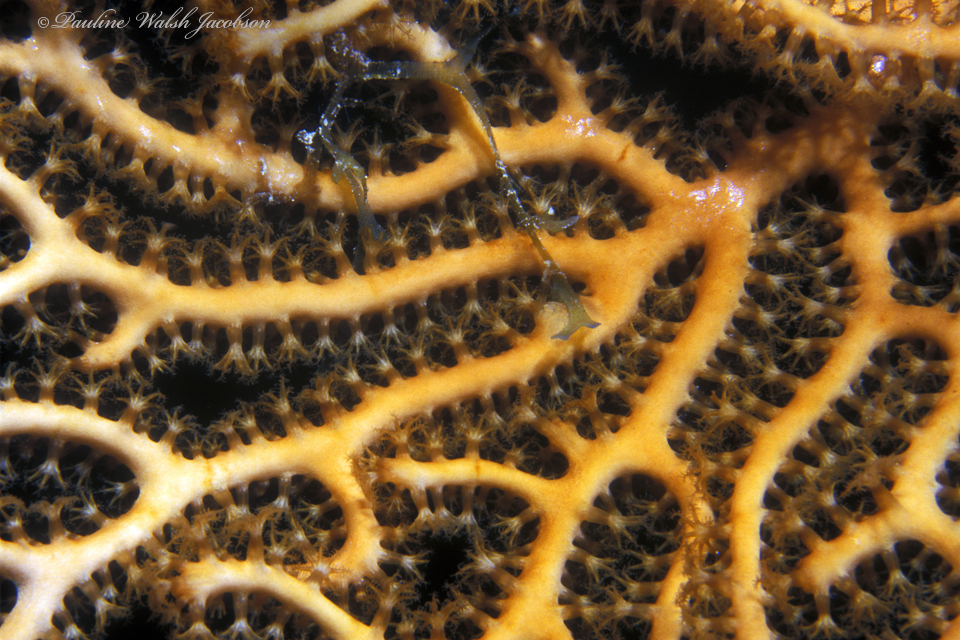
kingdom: Animalia
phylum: Cnidaria
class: Anthozoa
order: Malacalcyonacea
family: Melithaeidae
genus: Iciligorgia
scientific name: Iciligorgia schrammi
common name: Black sea fan
